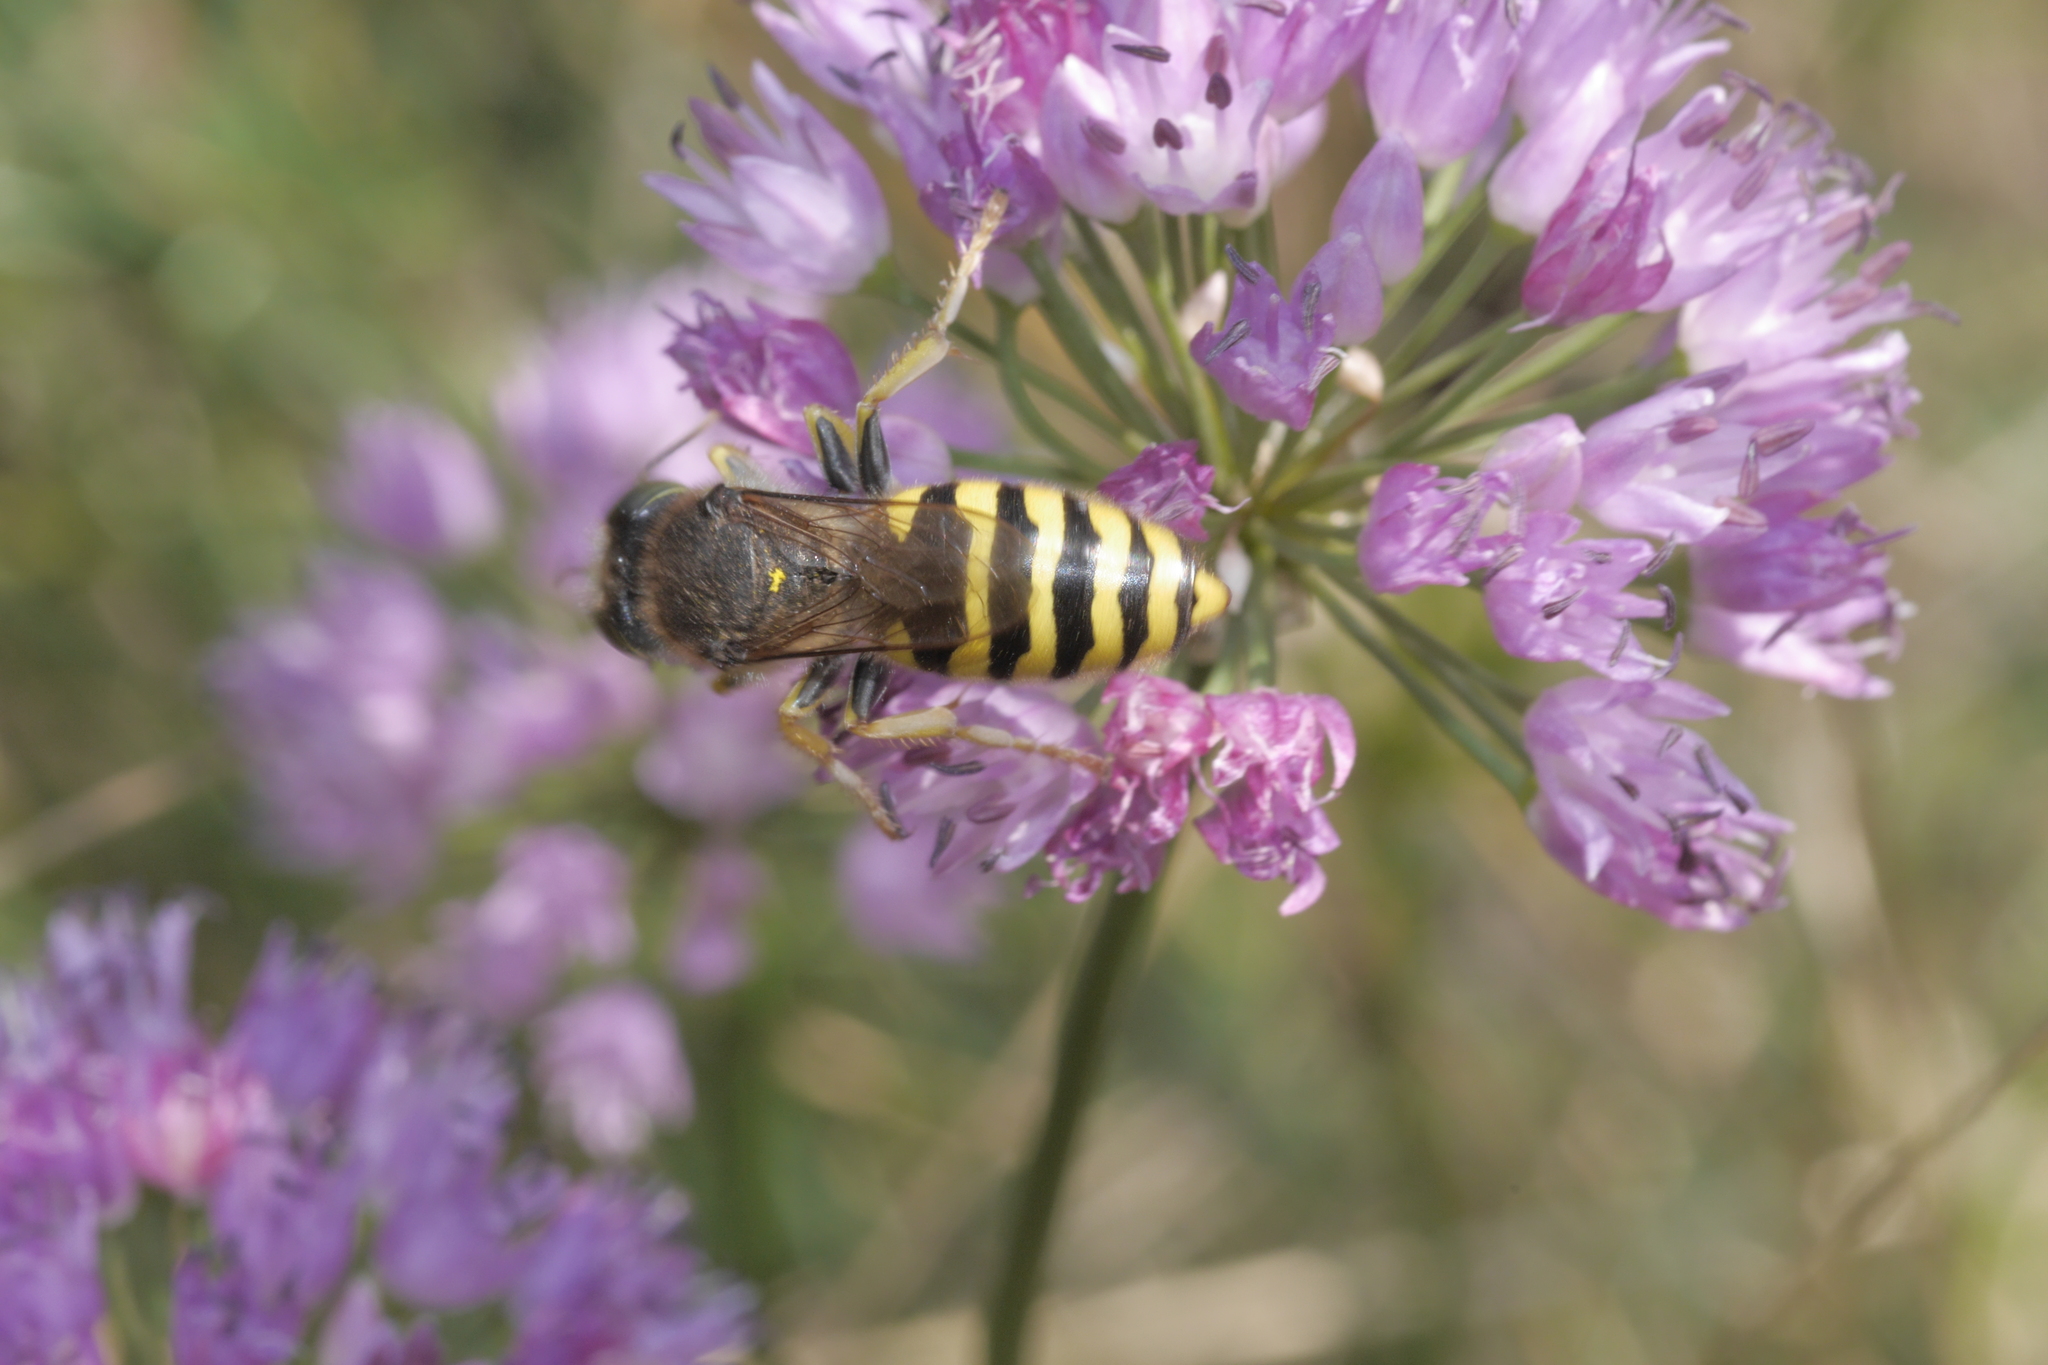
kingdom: Animalia
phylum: Arthropoda
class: Insecta
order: Hymenoptera
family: Crabronidae
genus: Bembix
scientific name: Bembix rostrata
